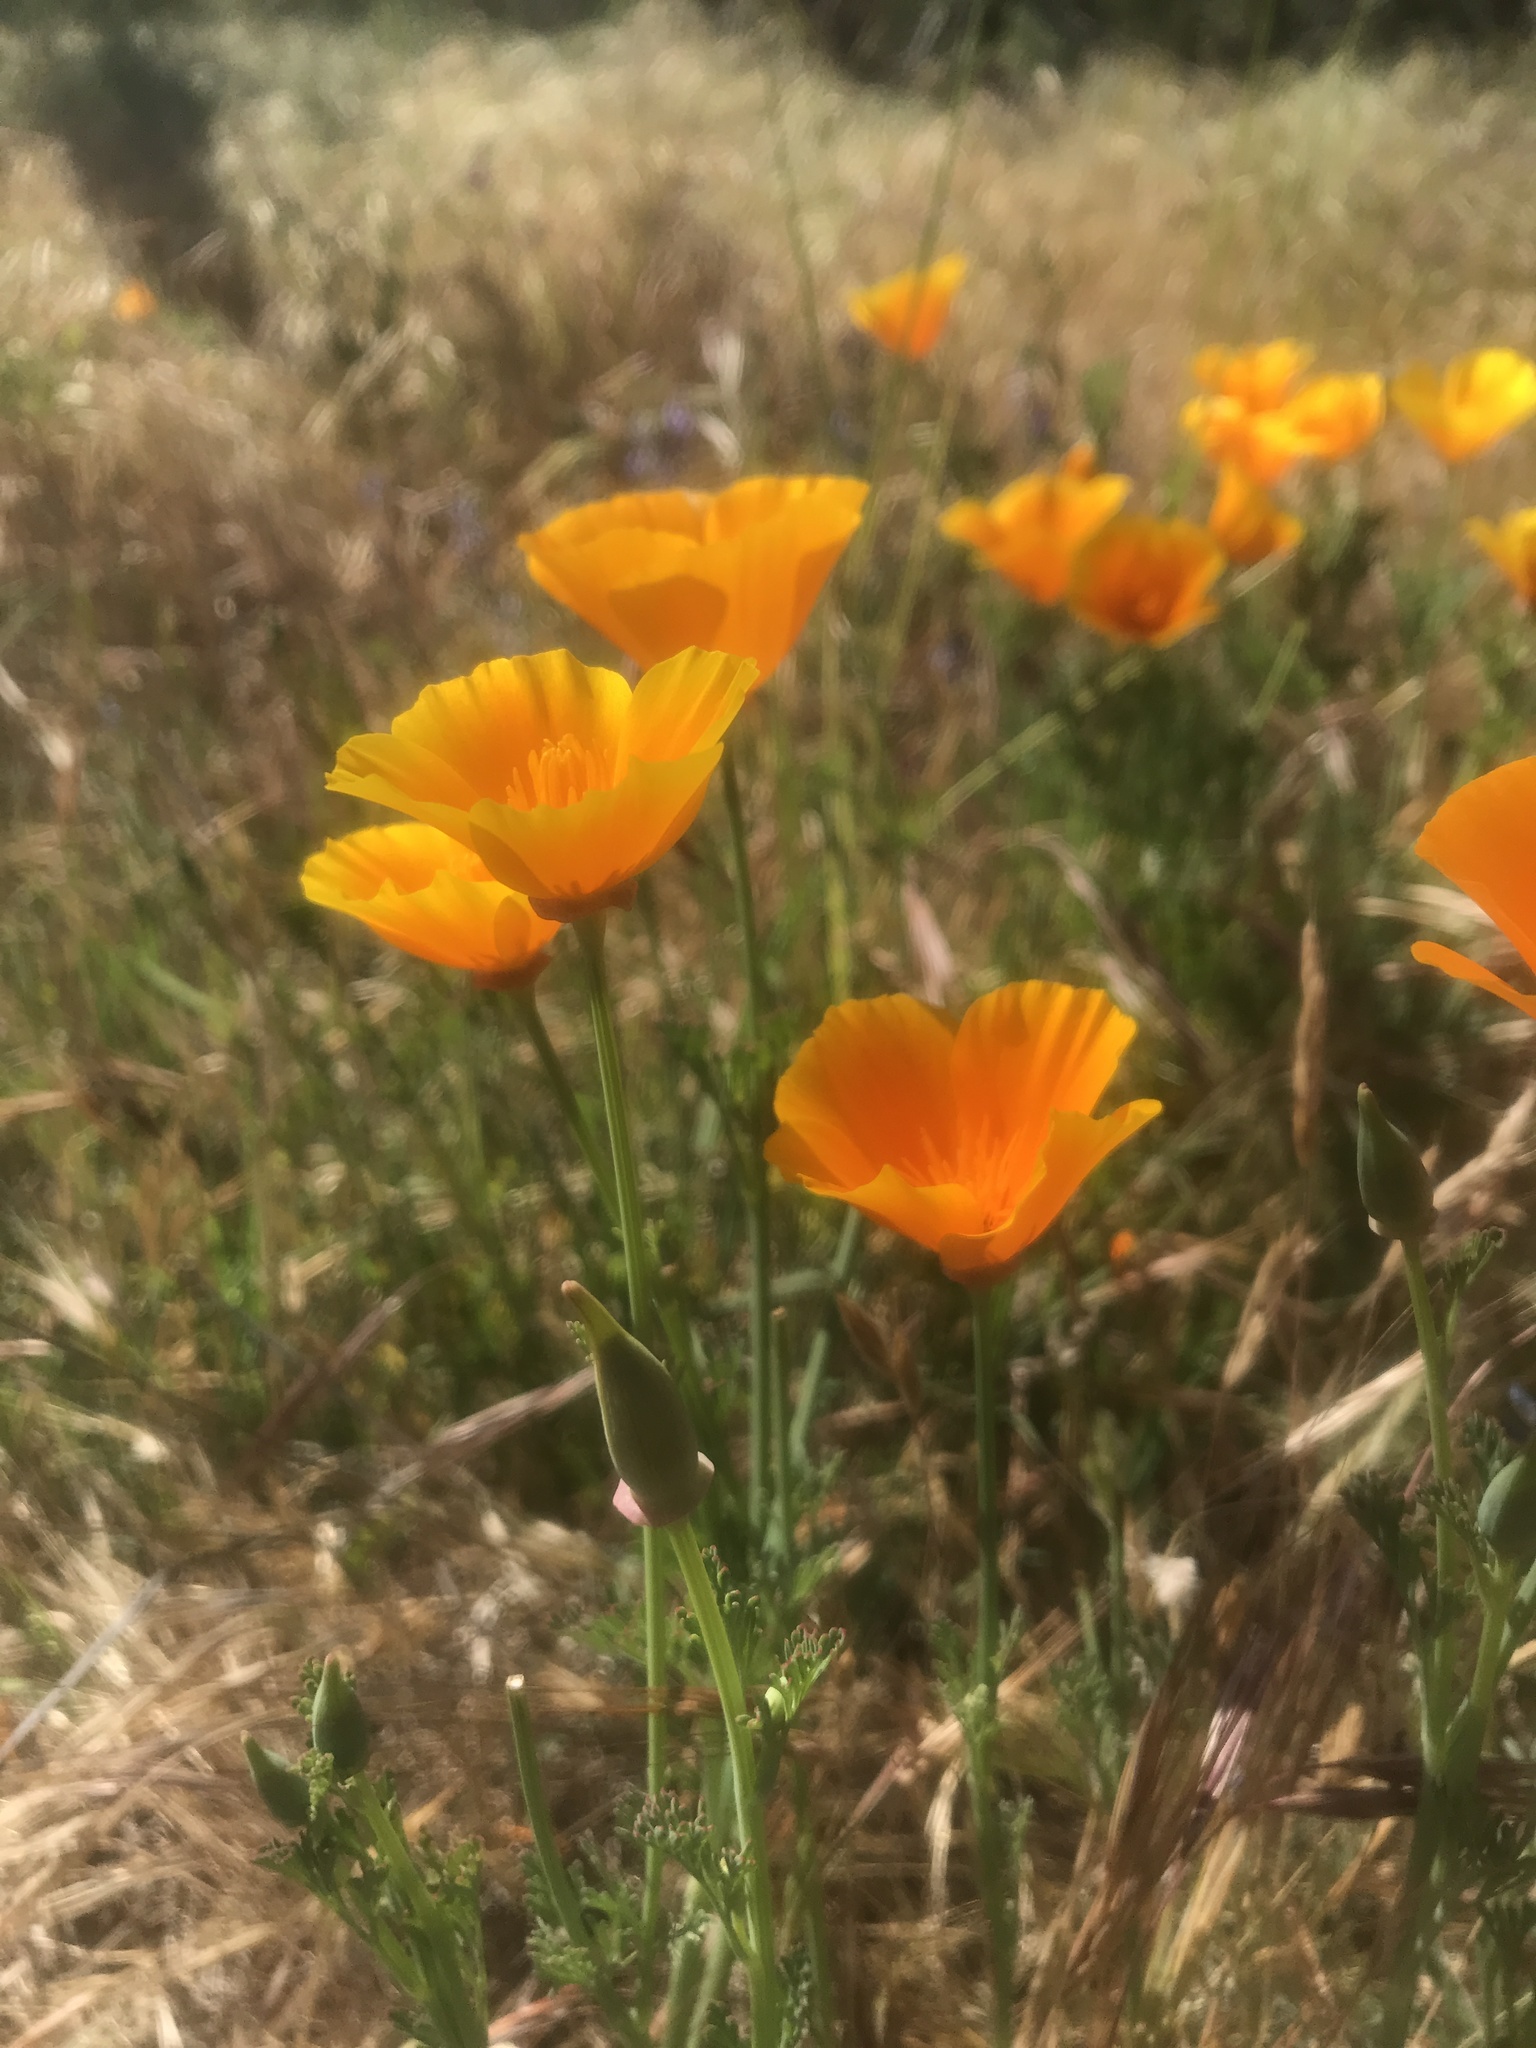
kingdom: Plantae
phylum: Tracheophyta
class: Magnoliopsida
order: Ranunculales
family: Papaveraceae
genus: Eschscholzia
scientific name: Eschscholzia californica
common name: California poppy
